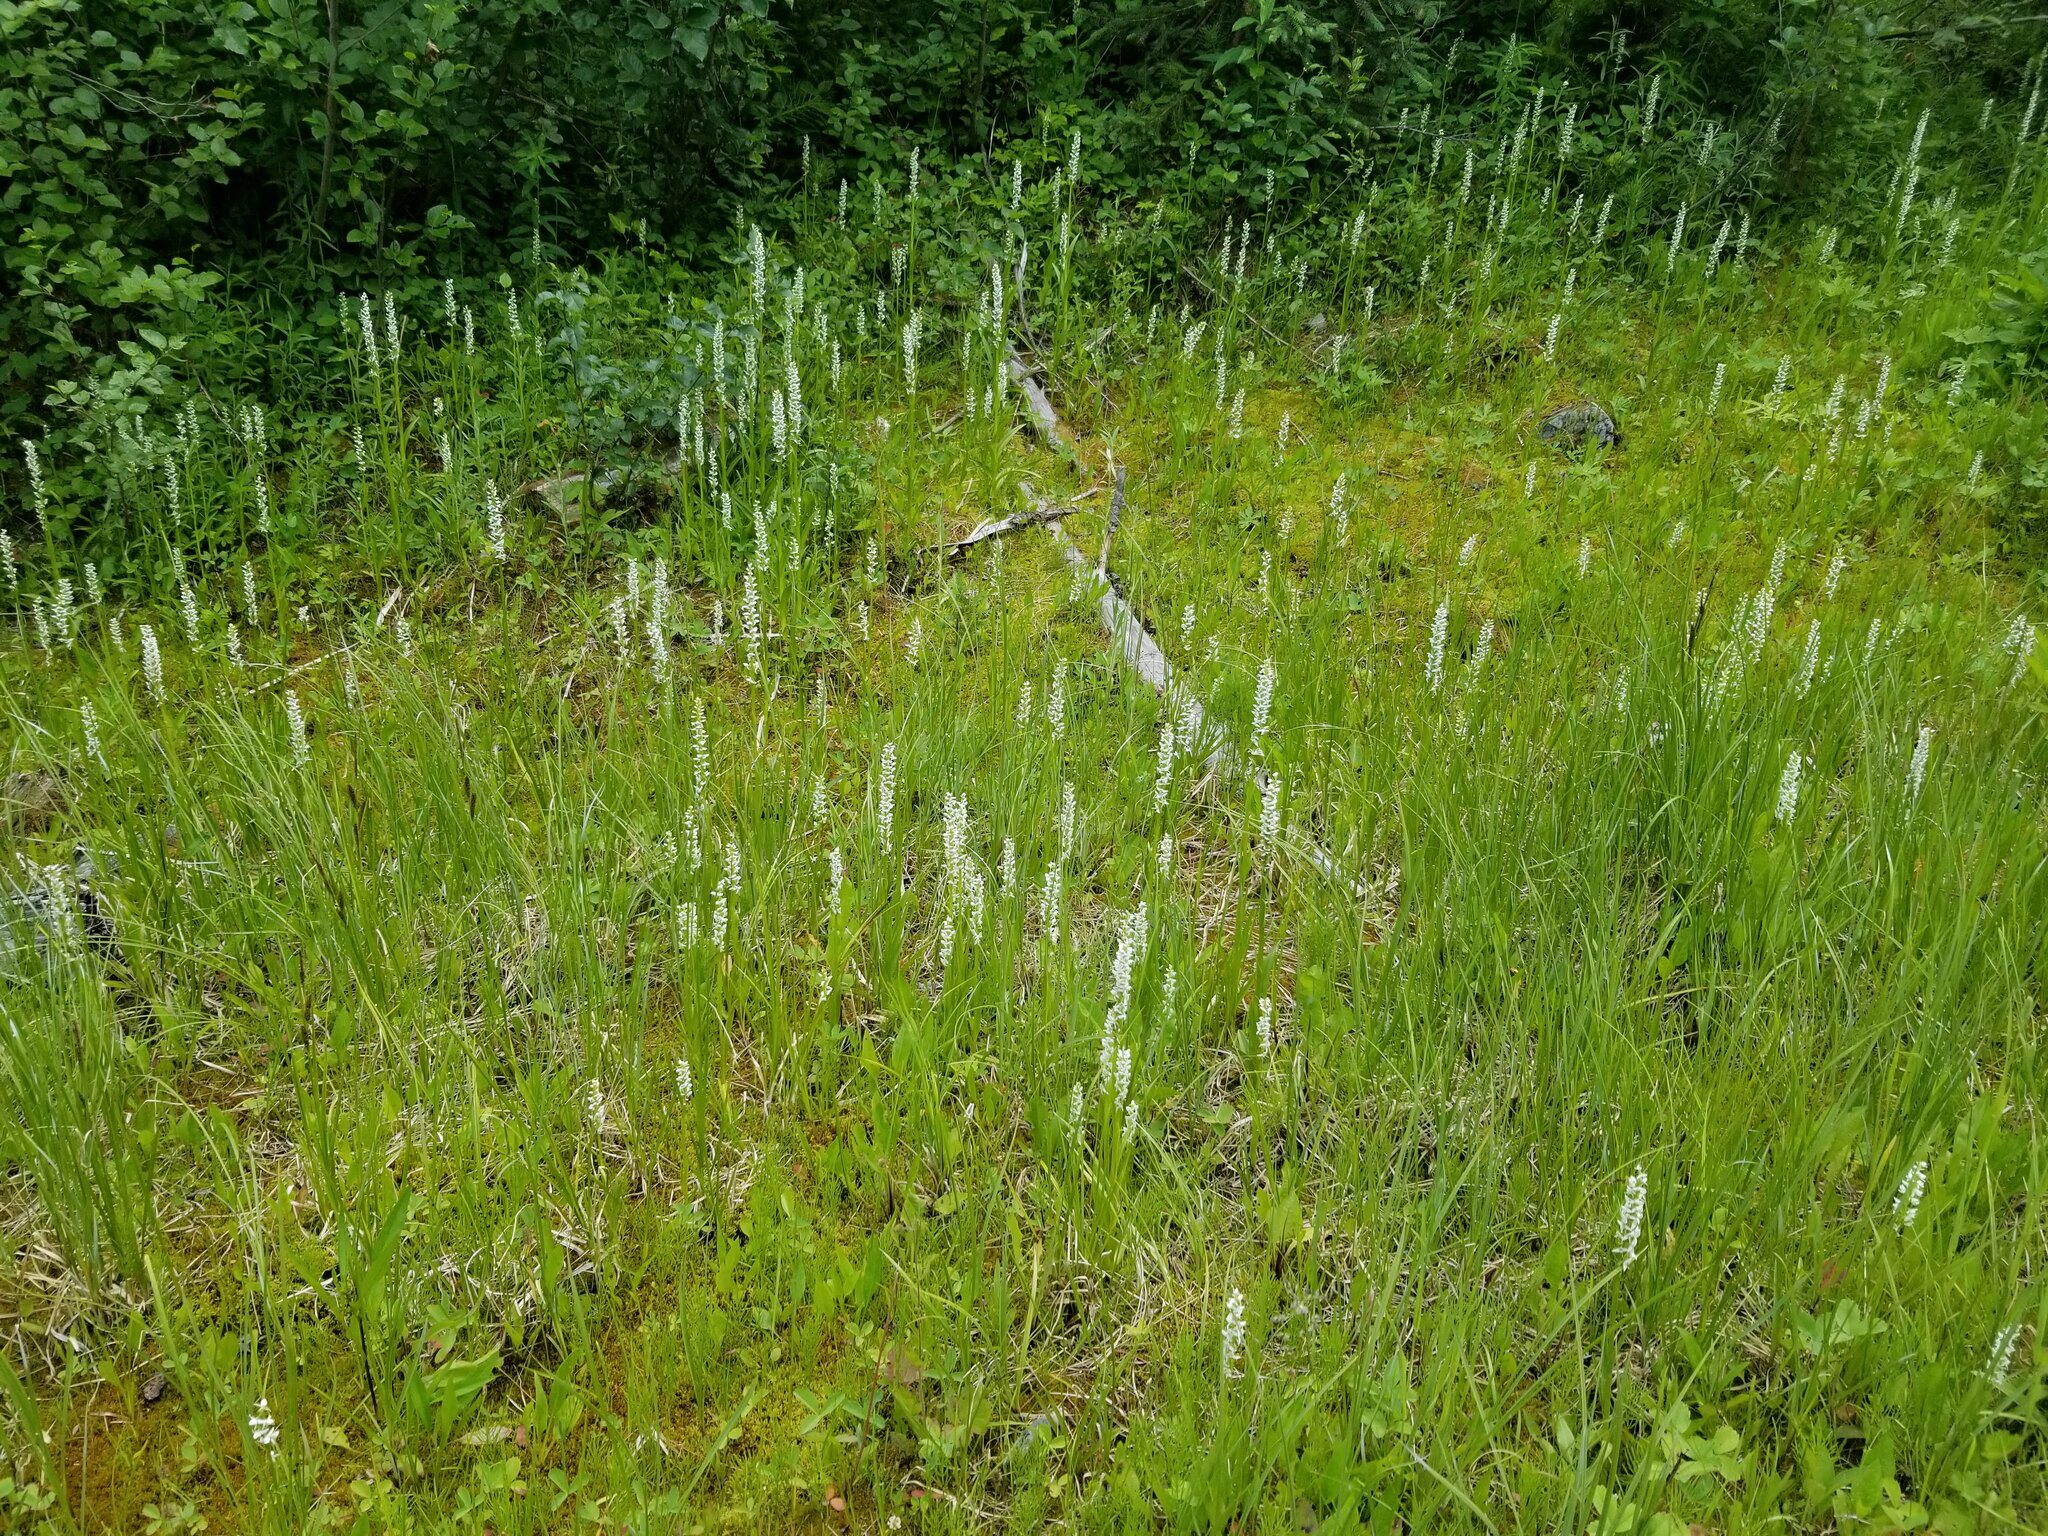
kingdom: Plantae
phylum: Tracheophyta
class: Liliopsida
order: Asparagales
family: Orchidaceae
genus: Platanthera
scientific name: Platanthera dilatata
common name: Bog candles
